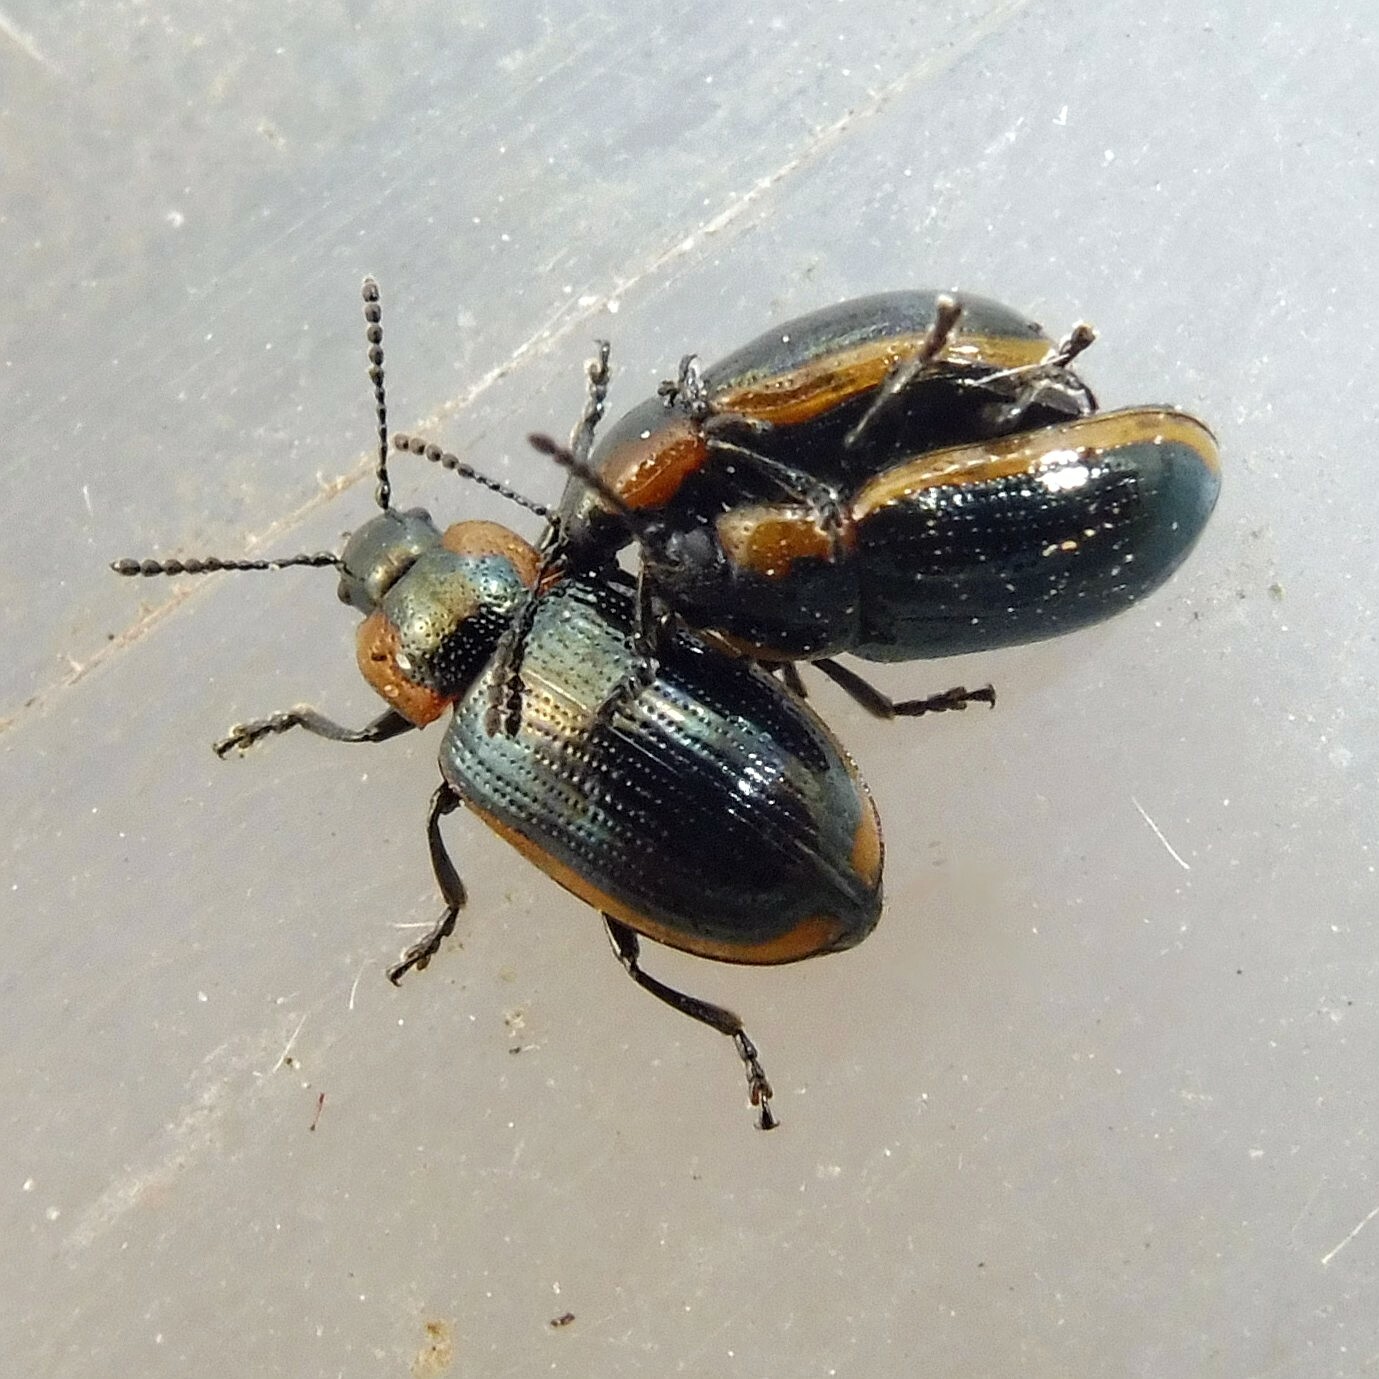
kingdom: Animalia
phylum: Arthropoda
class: Insecta
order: Coleoptera
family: Chrysomelidae
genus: Prasocuris
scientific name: Prasocuris marginella
